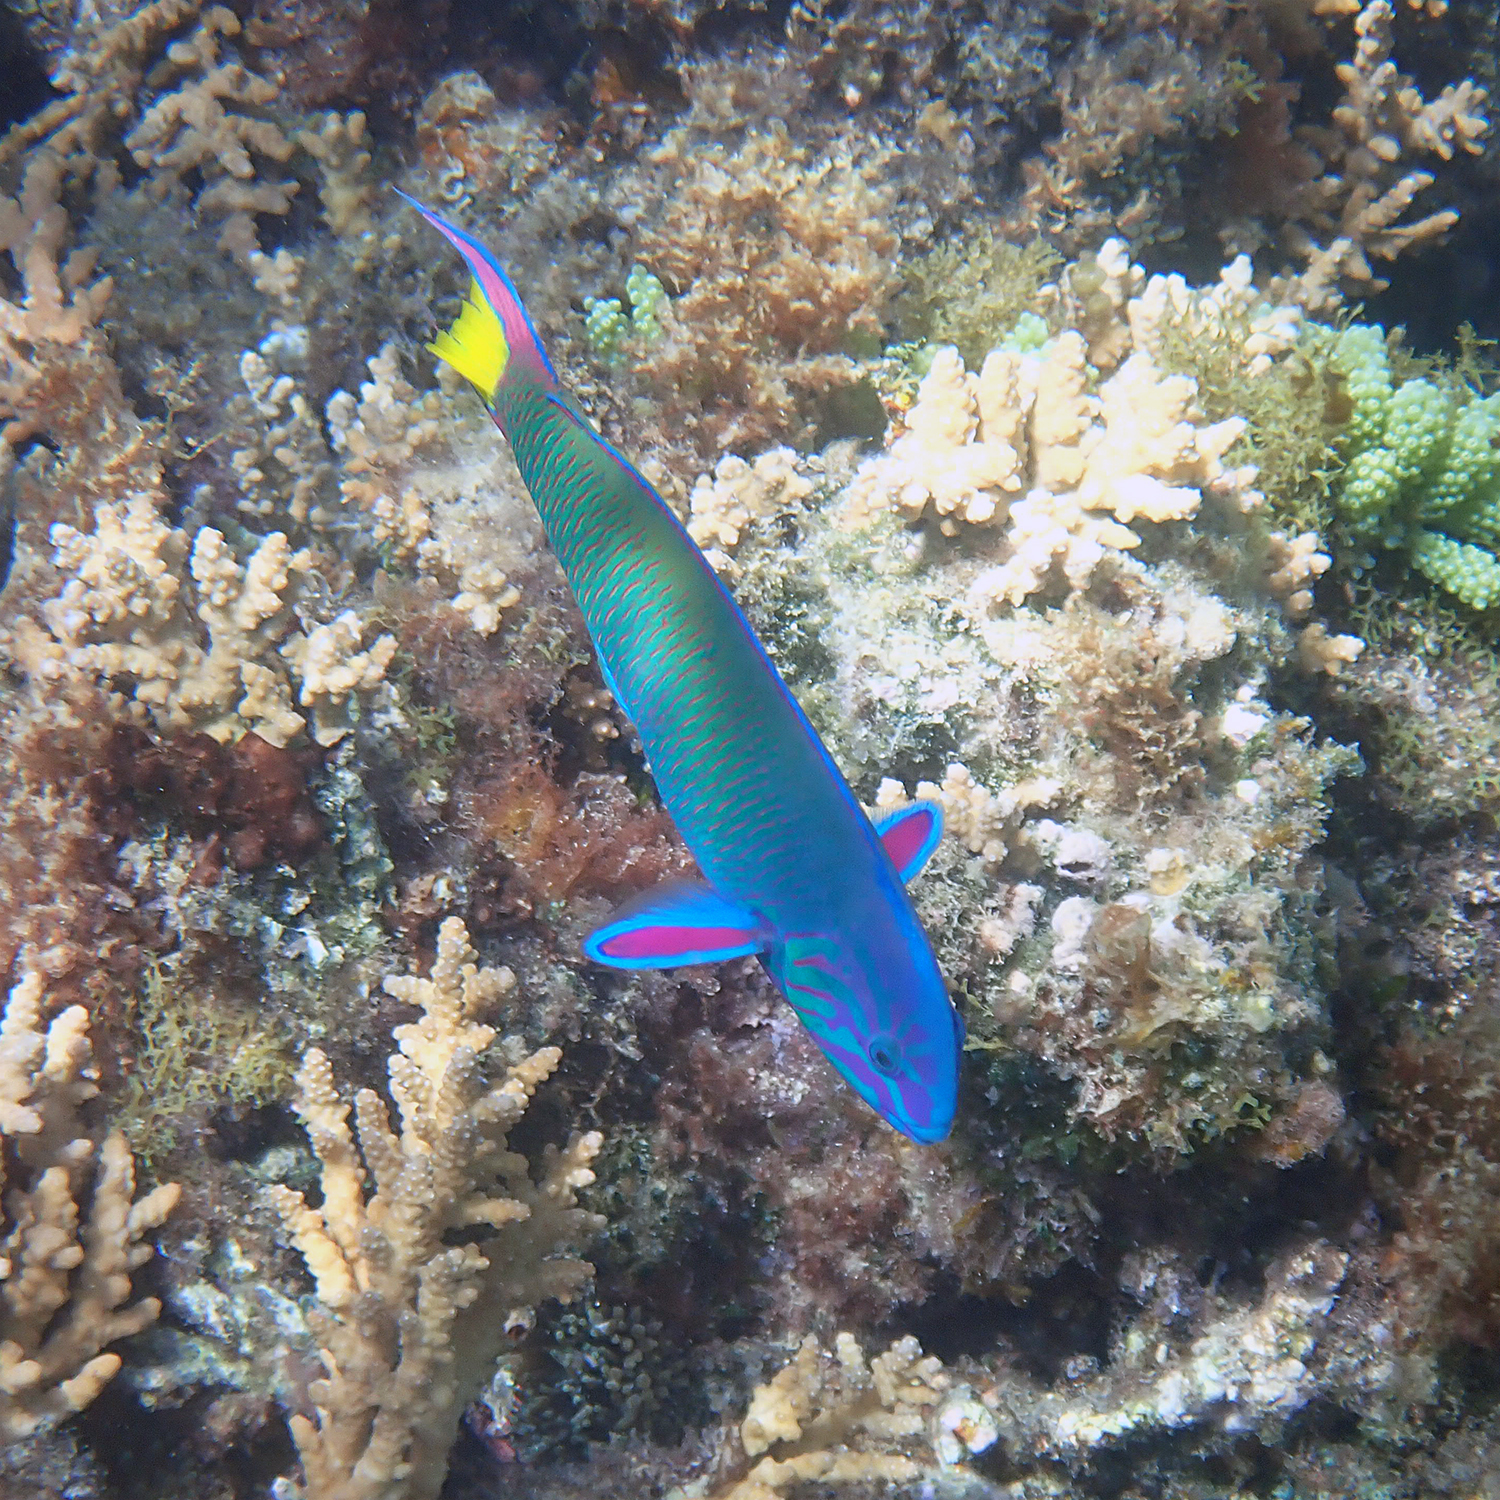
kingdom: Animalia
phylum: Chordata
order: Perciformes
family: Labridae
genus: Thalassoma
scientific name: Thalassoma lunare
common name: Blue wrasse
